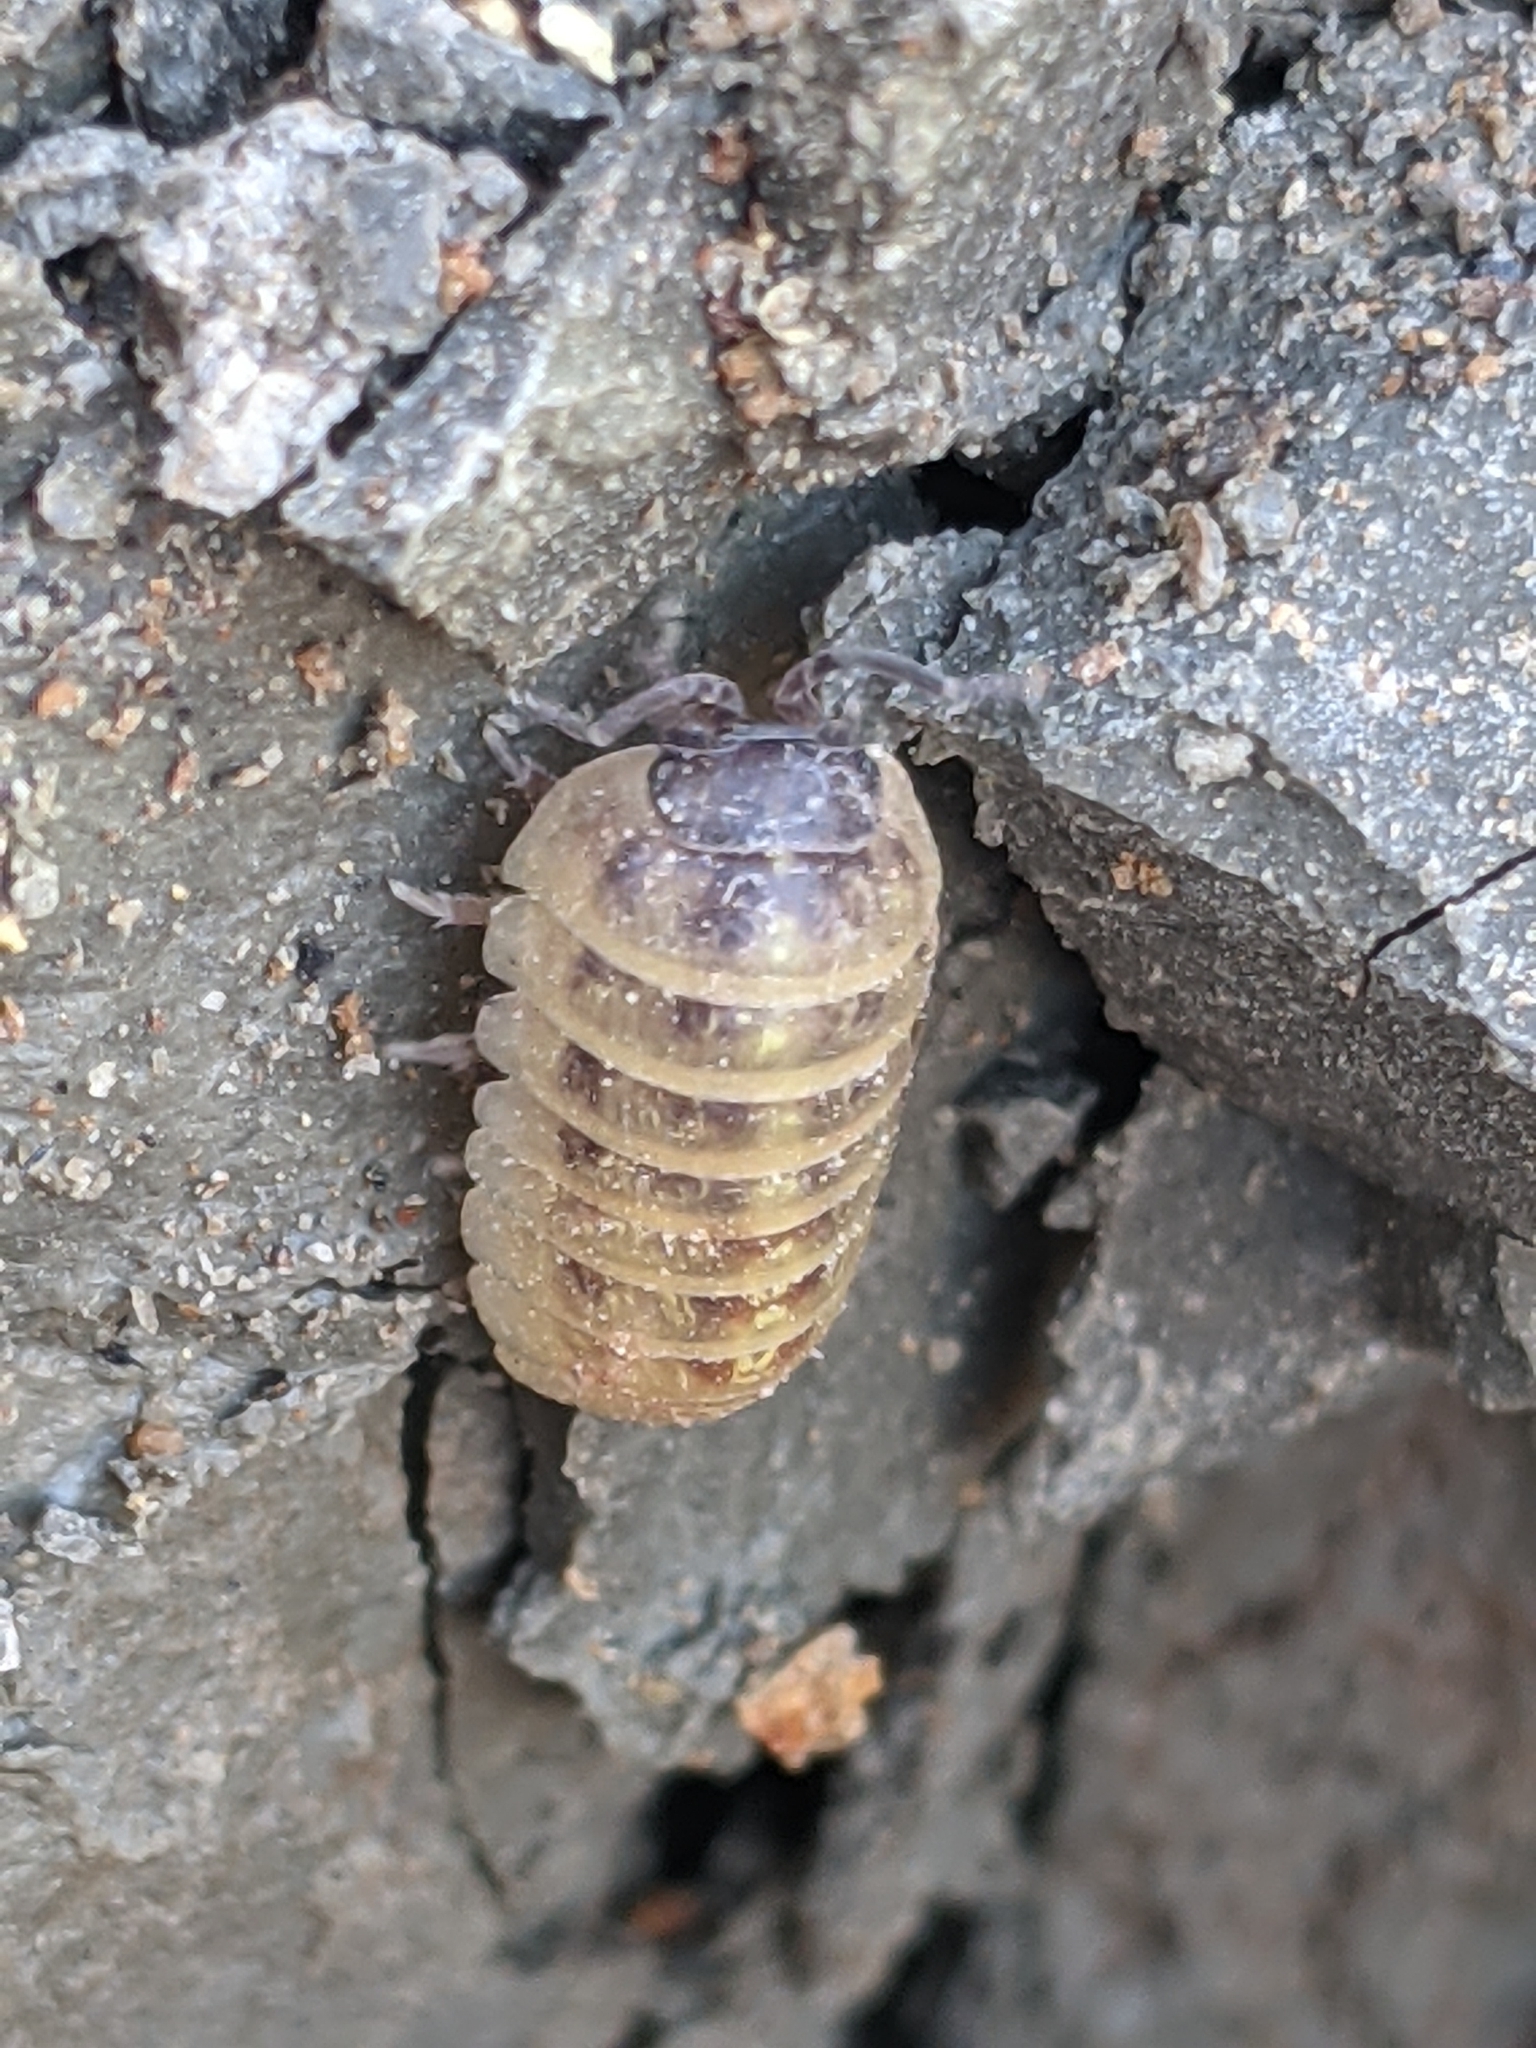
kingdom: Animalia
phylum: Arthropoda
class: Malacostraca
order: Isopoda
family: Armadillidiidae
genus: Armadillidium
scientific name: Armadillidium vulgare
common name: Common pill woodlouse
